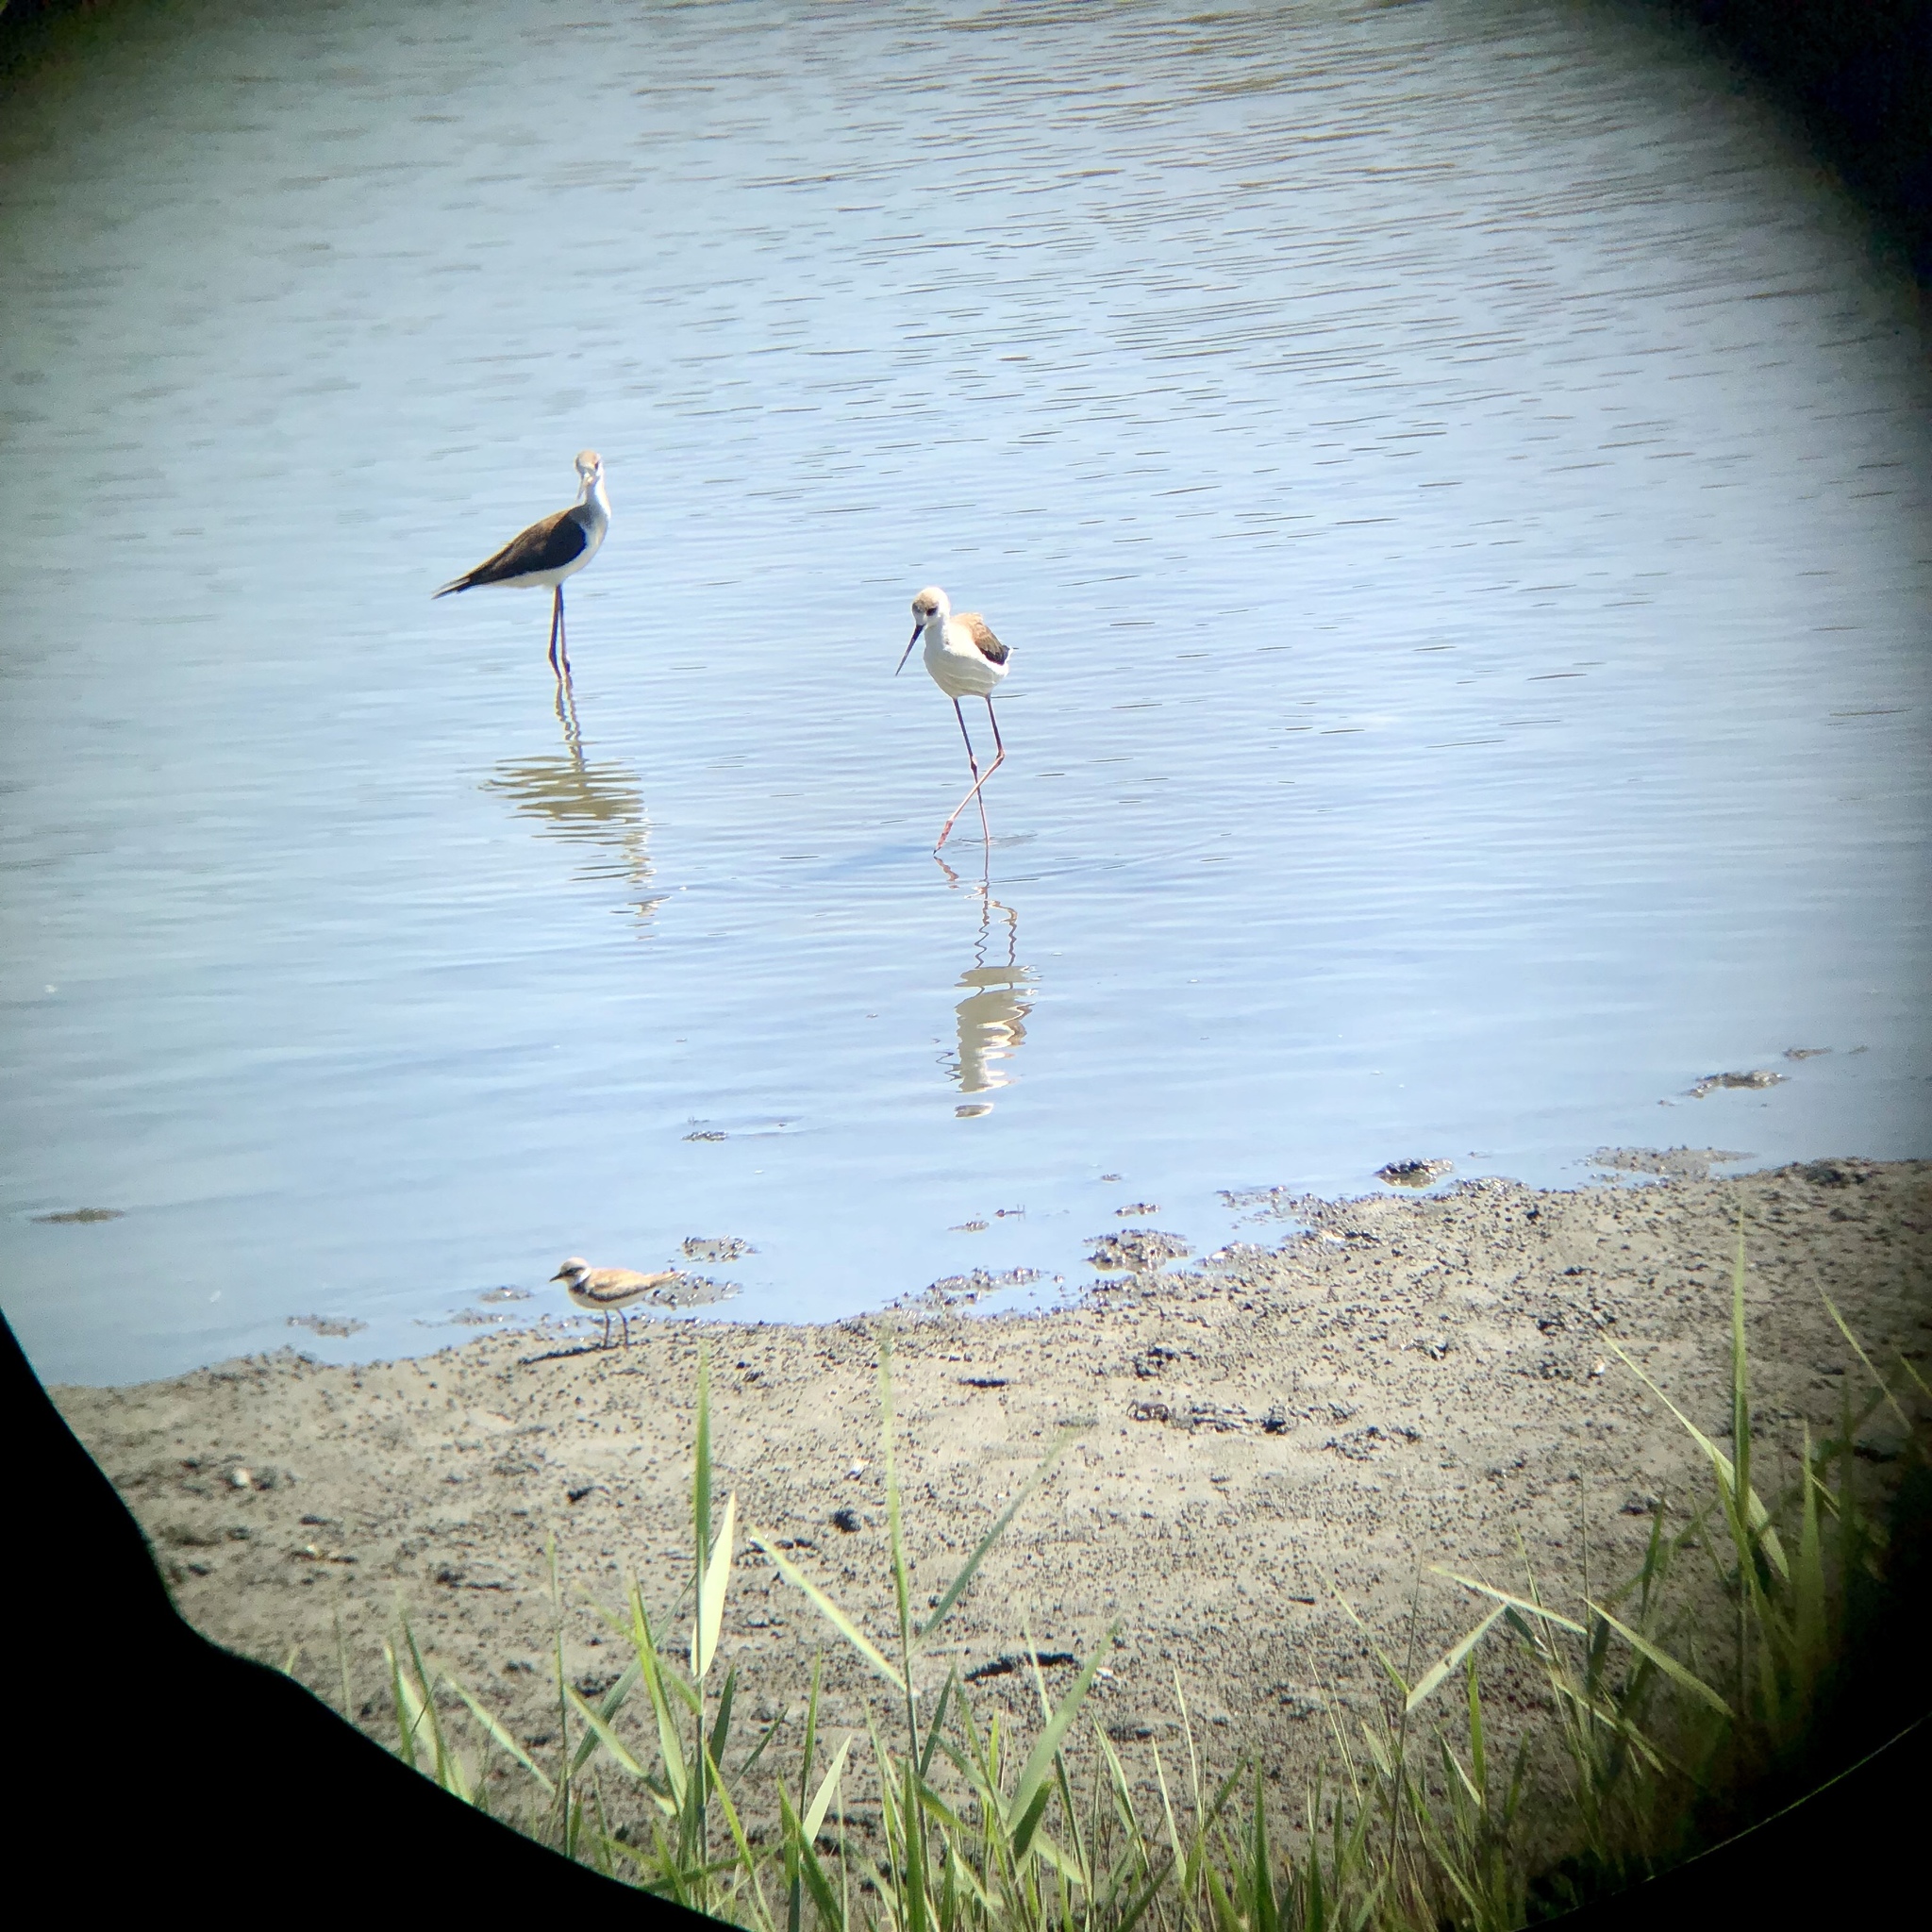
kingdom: Animalia
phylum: Chordata
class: Aves
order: Charadriiformes
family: Recurvirostridae
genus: Himantopus
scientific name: Himantopus himantopus
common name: Black-winged stilt
